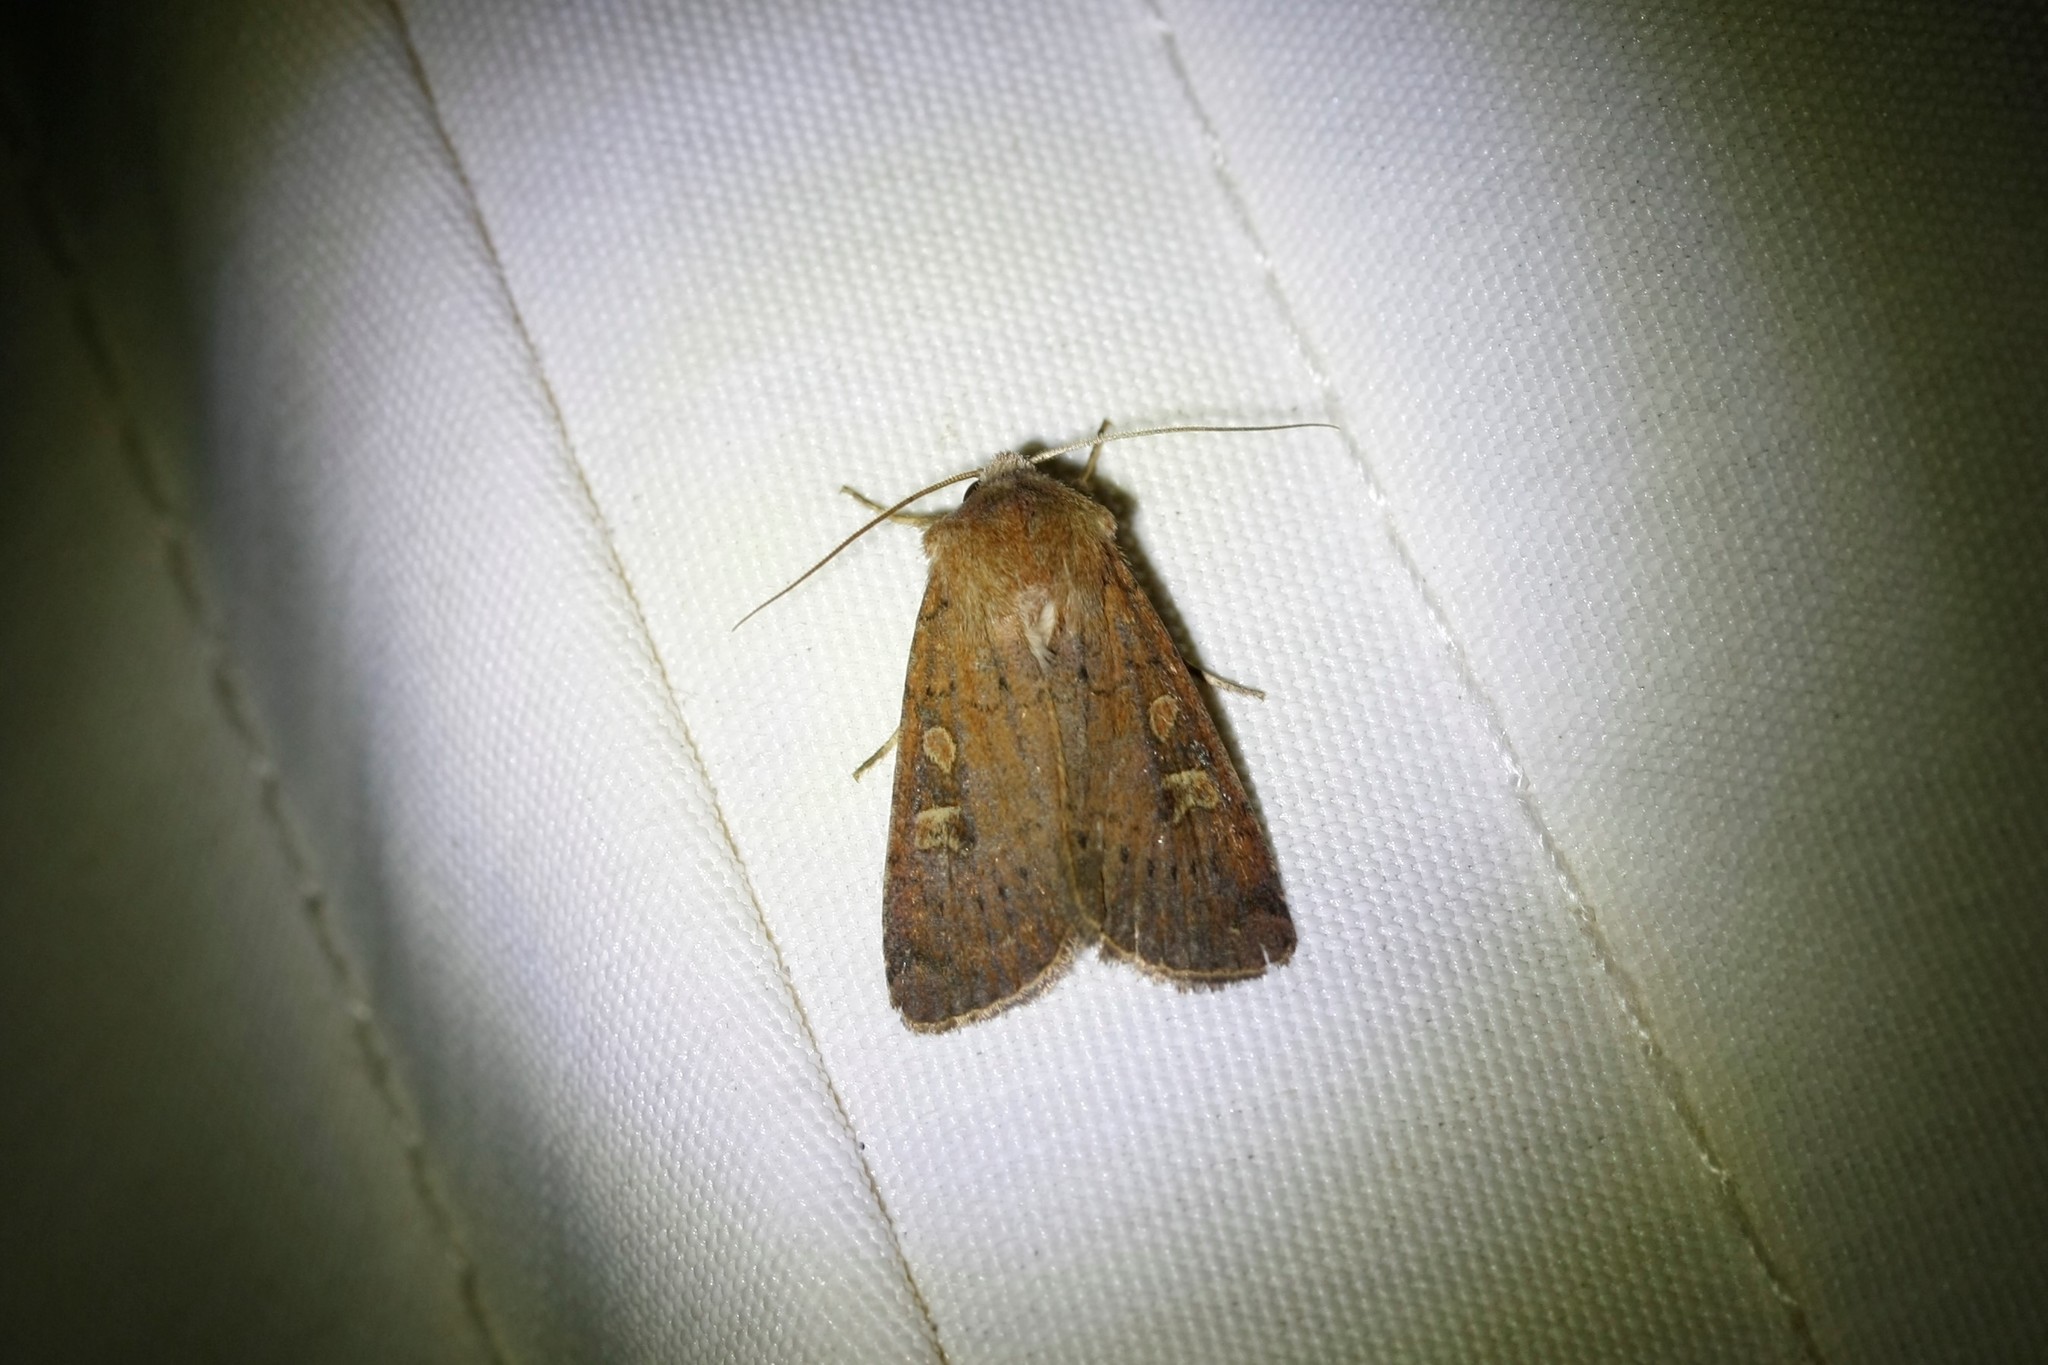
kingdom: Animalia
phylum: Arthropoda
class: Insecta
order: Lepidoptera
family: Noctuidae
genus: Xestia
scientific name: Xestia xanthographa
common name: Square-spot rustic
